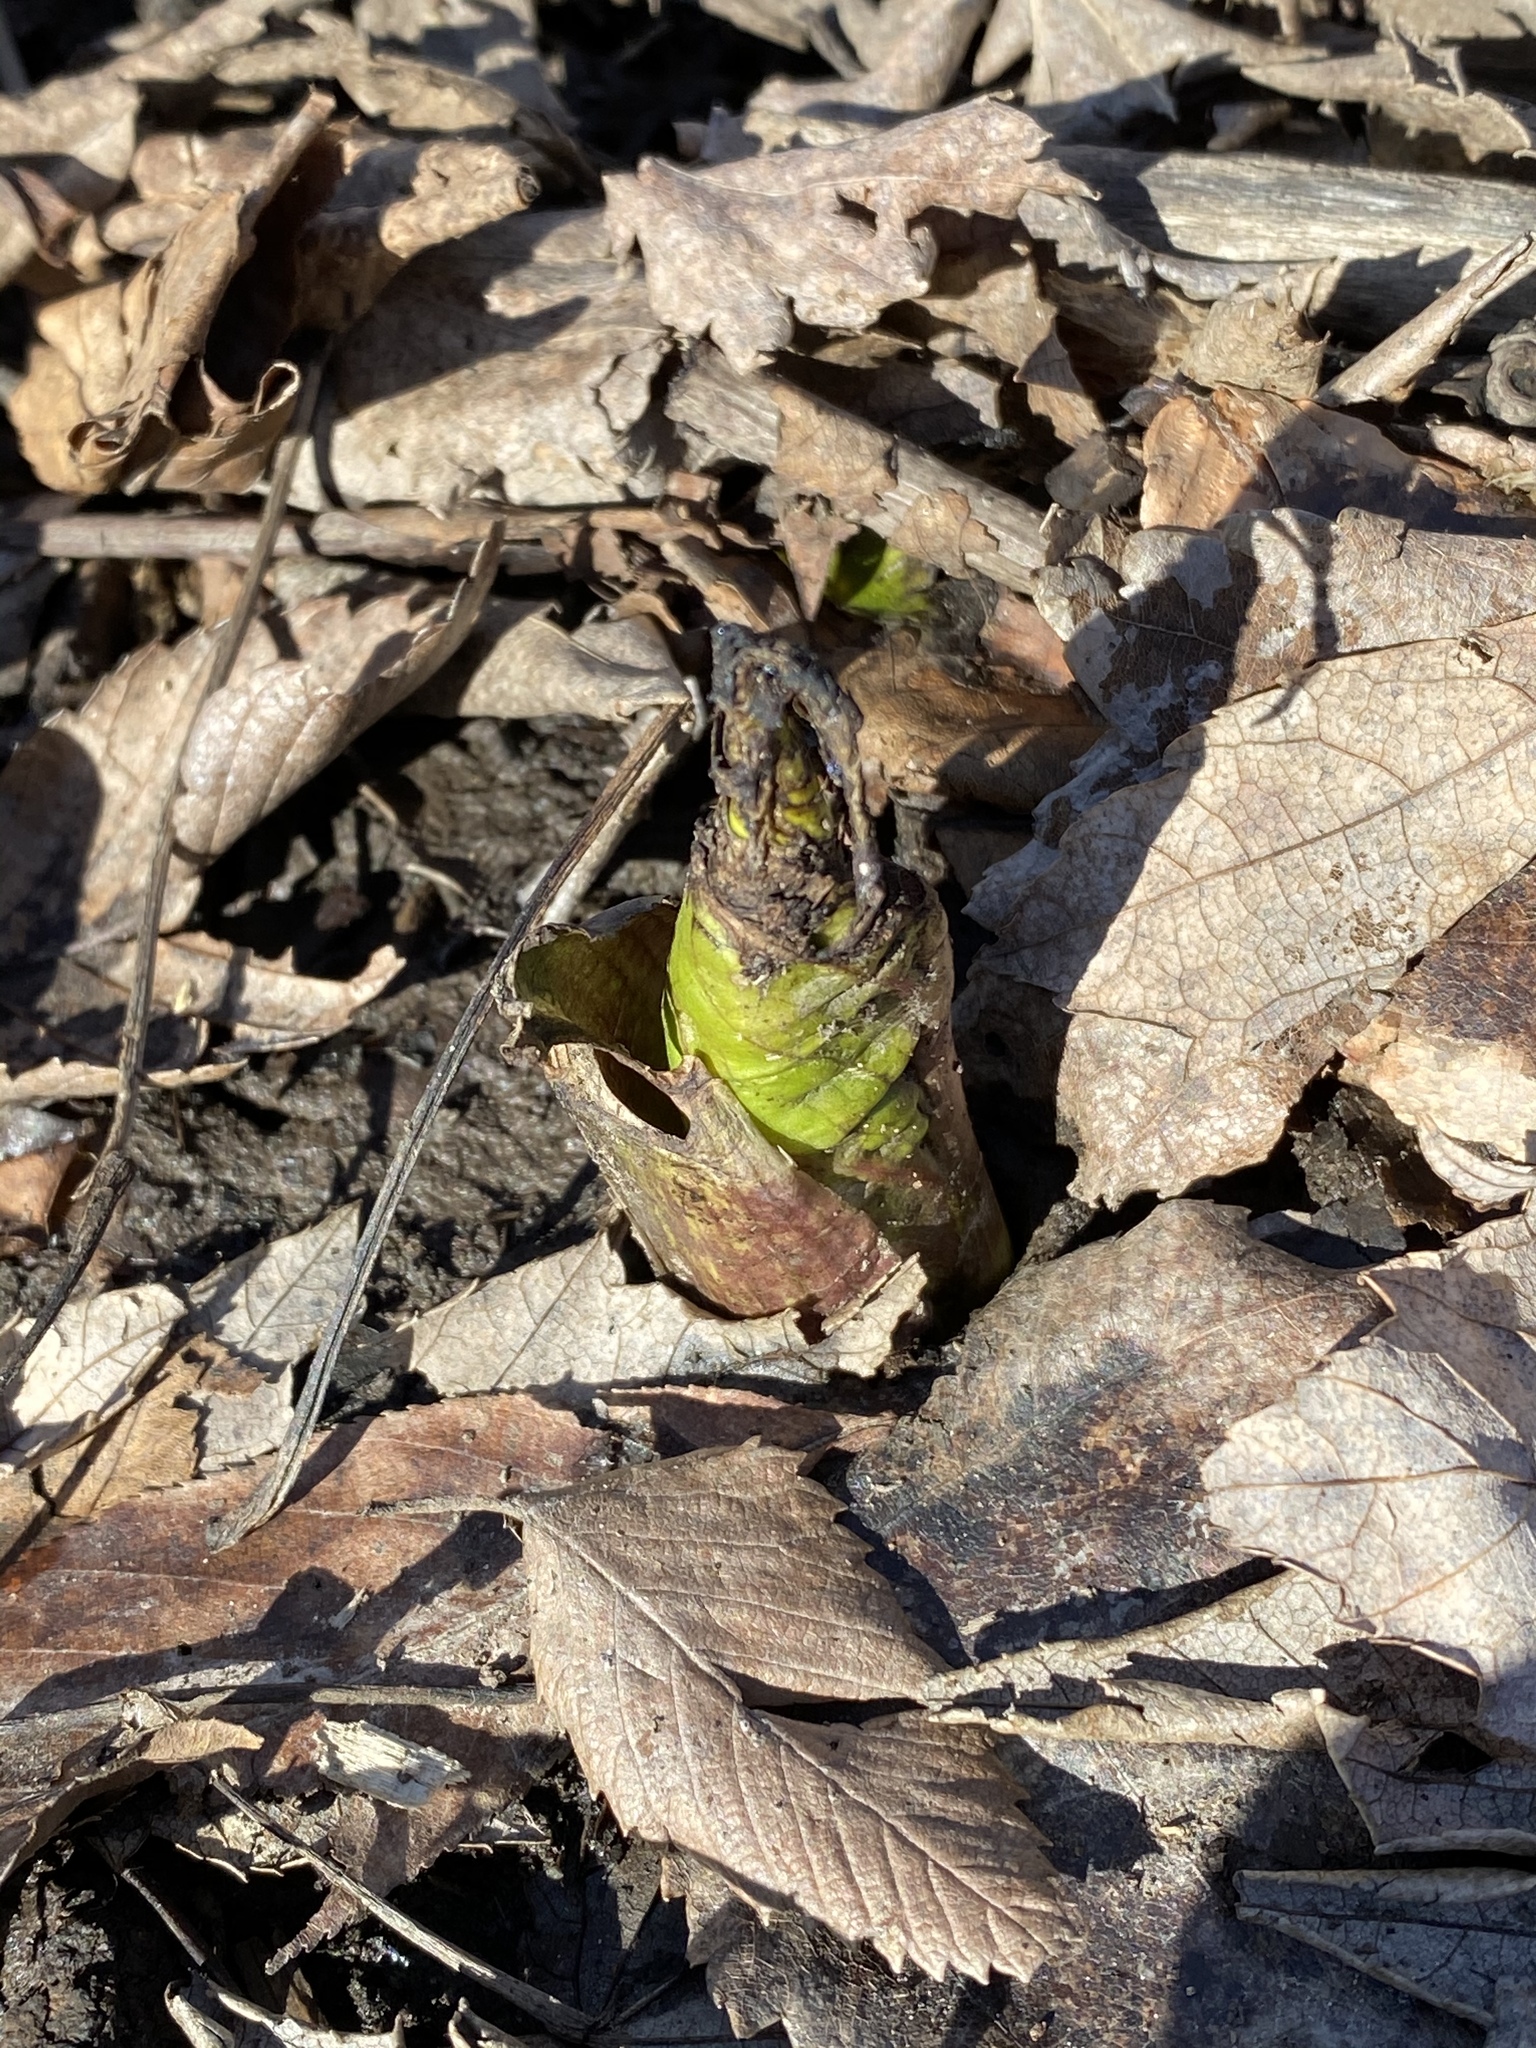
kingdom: Plantae
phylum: Tracheophyta
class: Liliopsida
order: Alismatales
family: Araceae
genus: Symplocarpus
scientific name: Symplocarpus foetidus
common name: Eastern skunk cabbage
